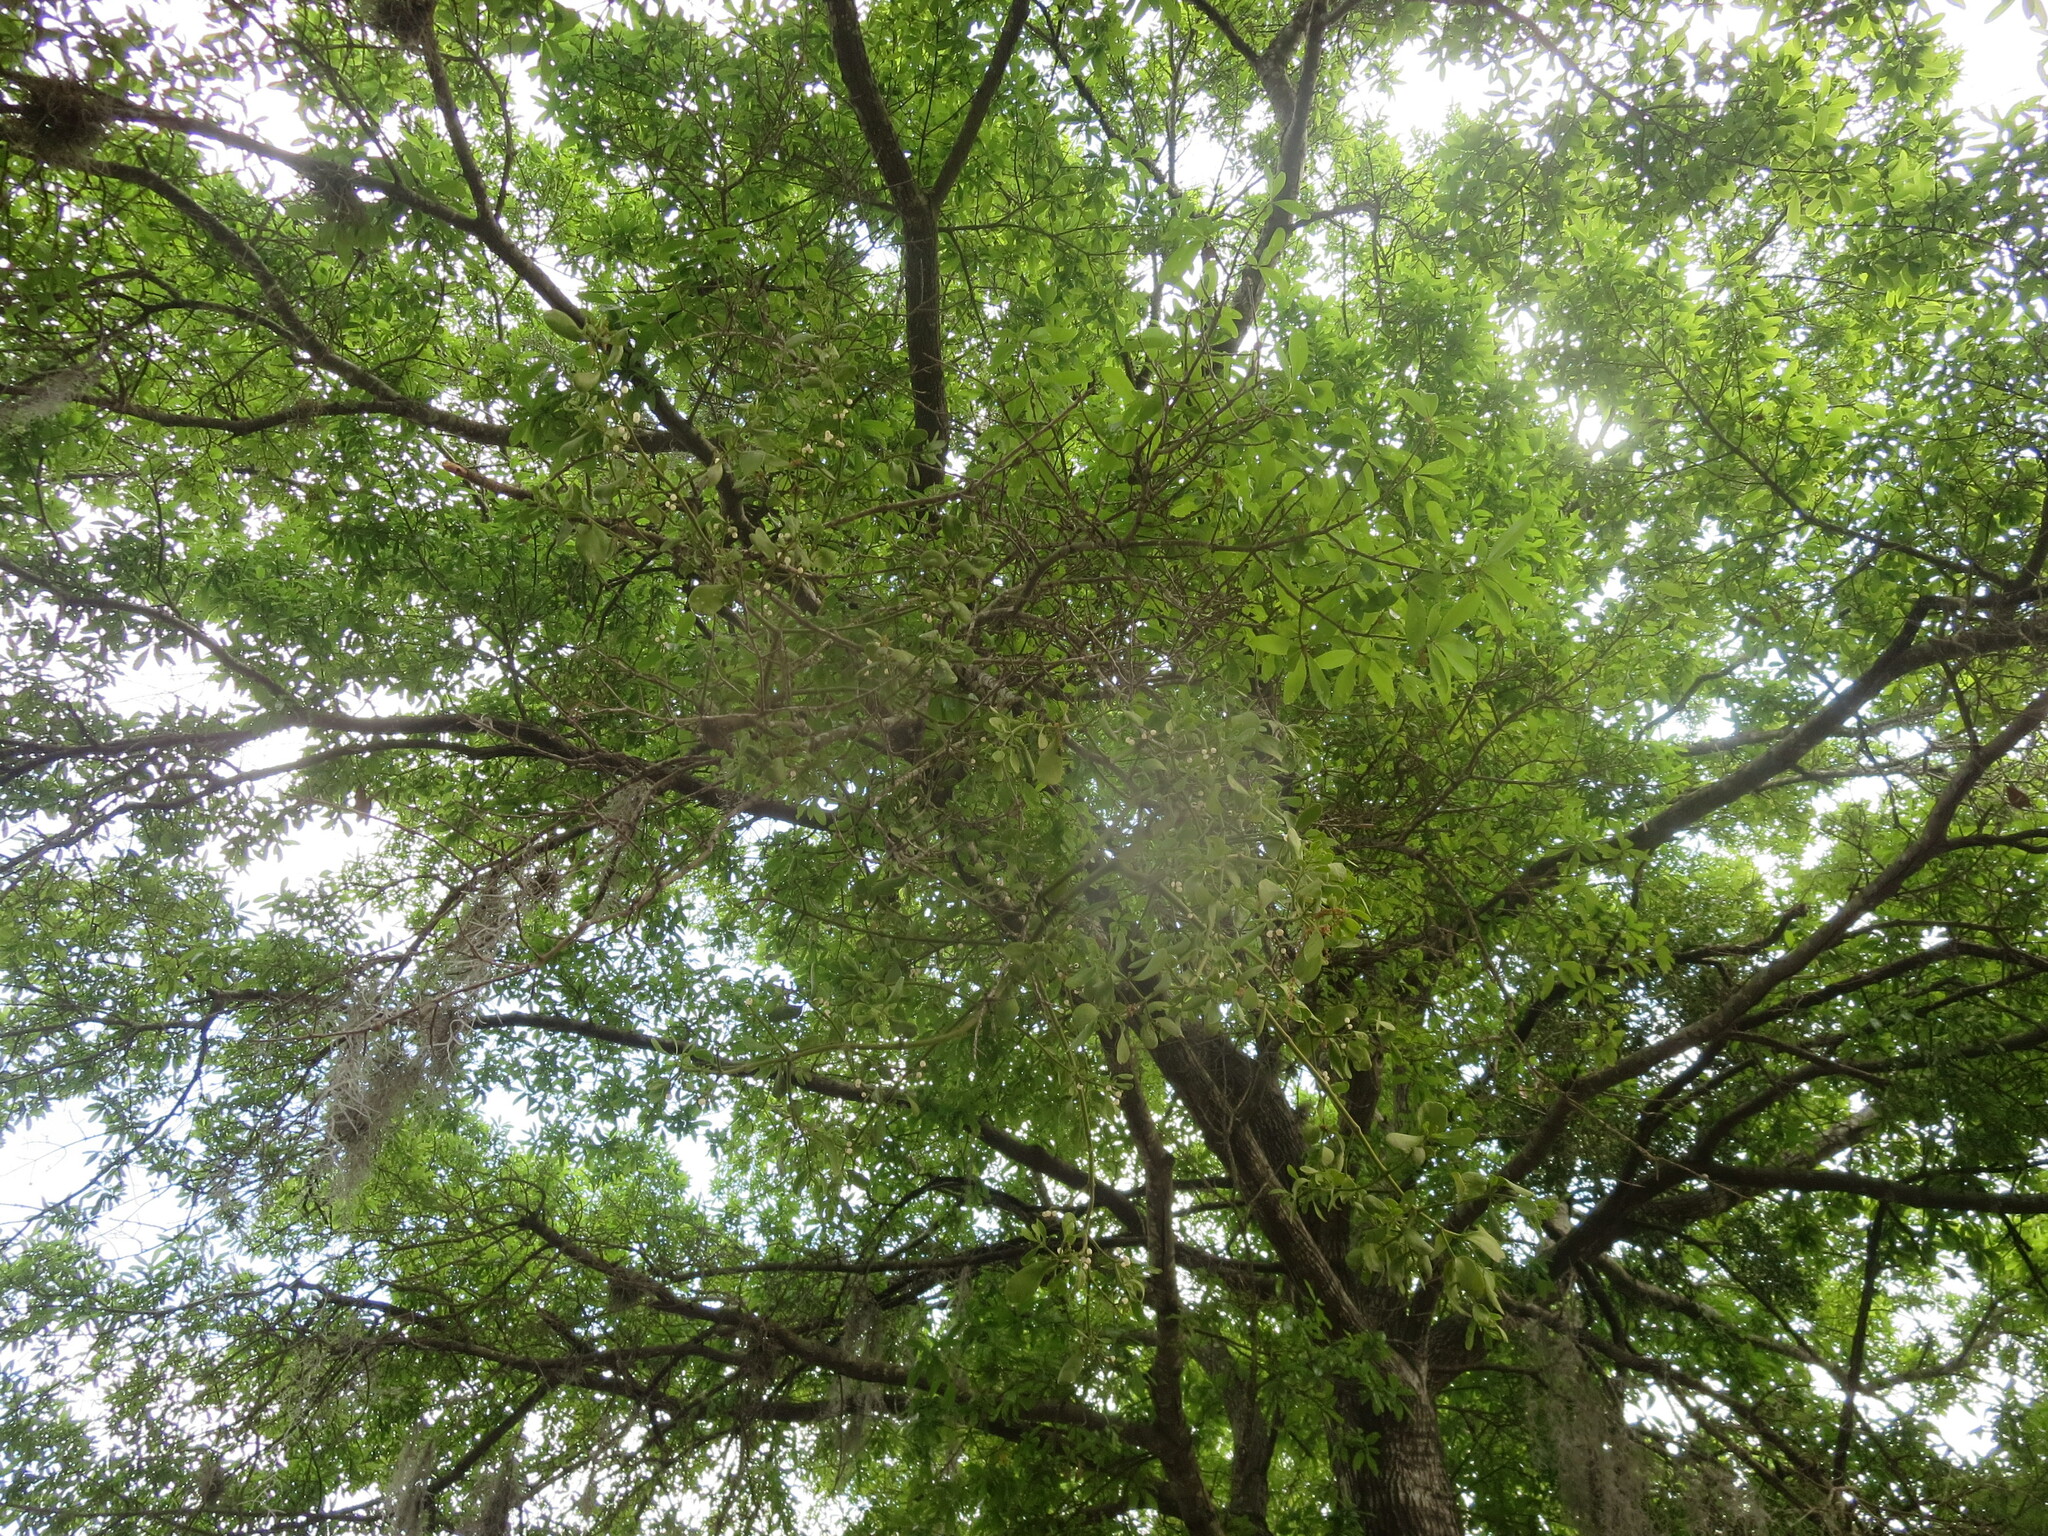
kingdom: Plantae
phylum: Tracheophyta
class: Magnoliopsida
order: Santalales
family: Viscaceae
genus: Phoradendron
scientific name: Phoradendron leucarpum
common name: Pacific mistletoe
